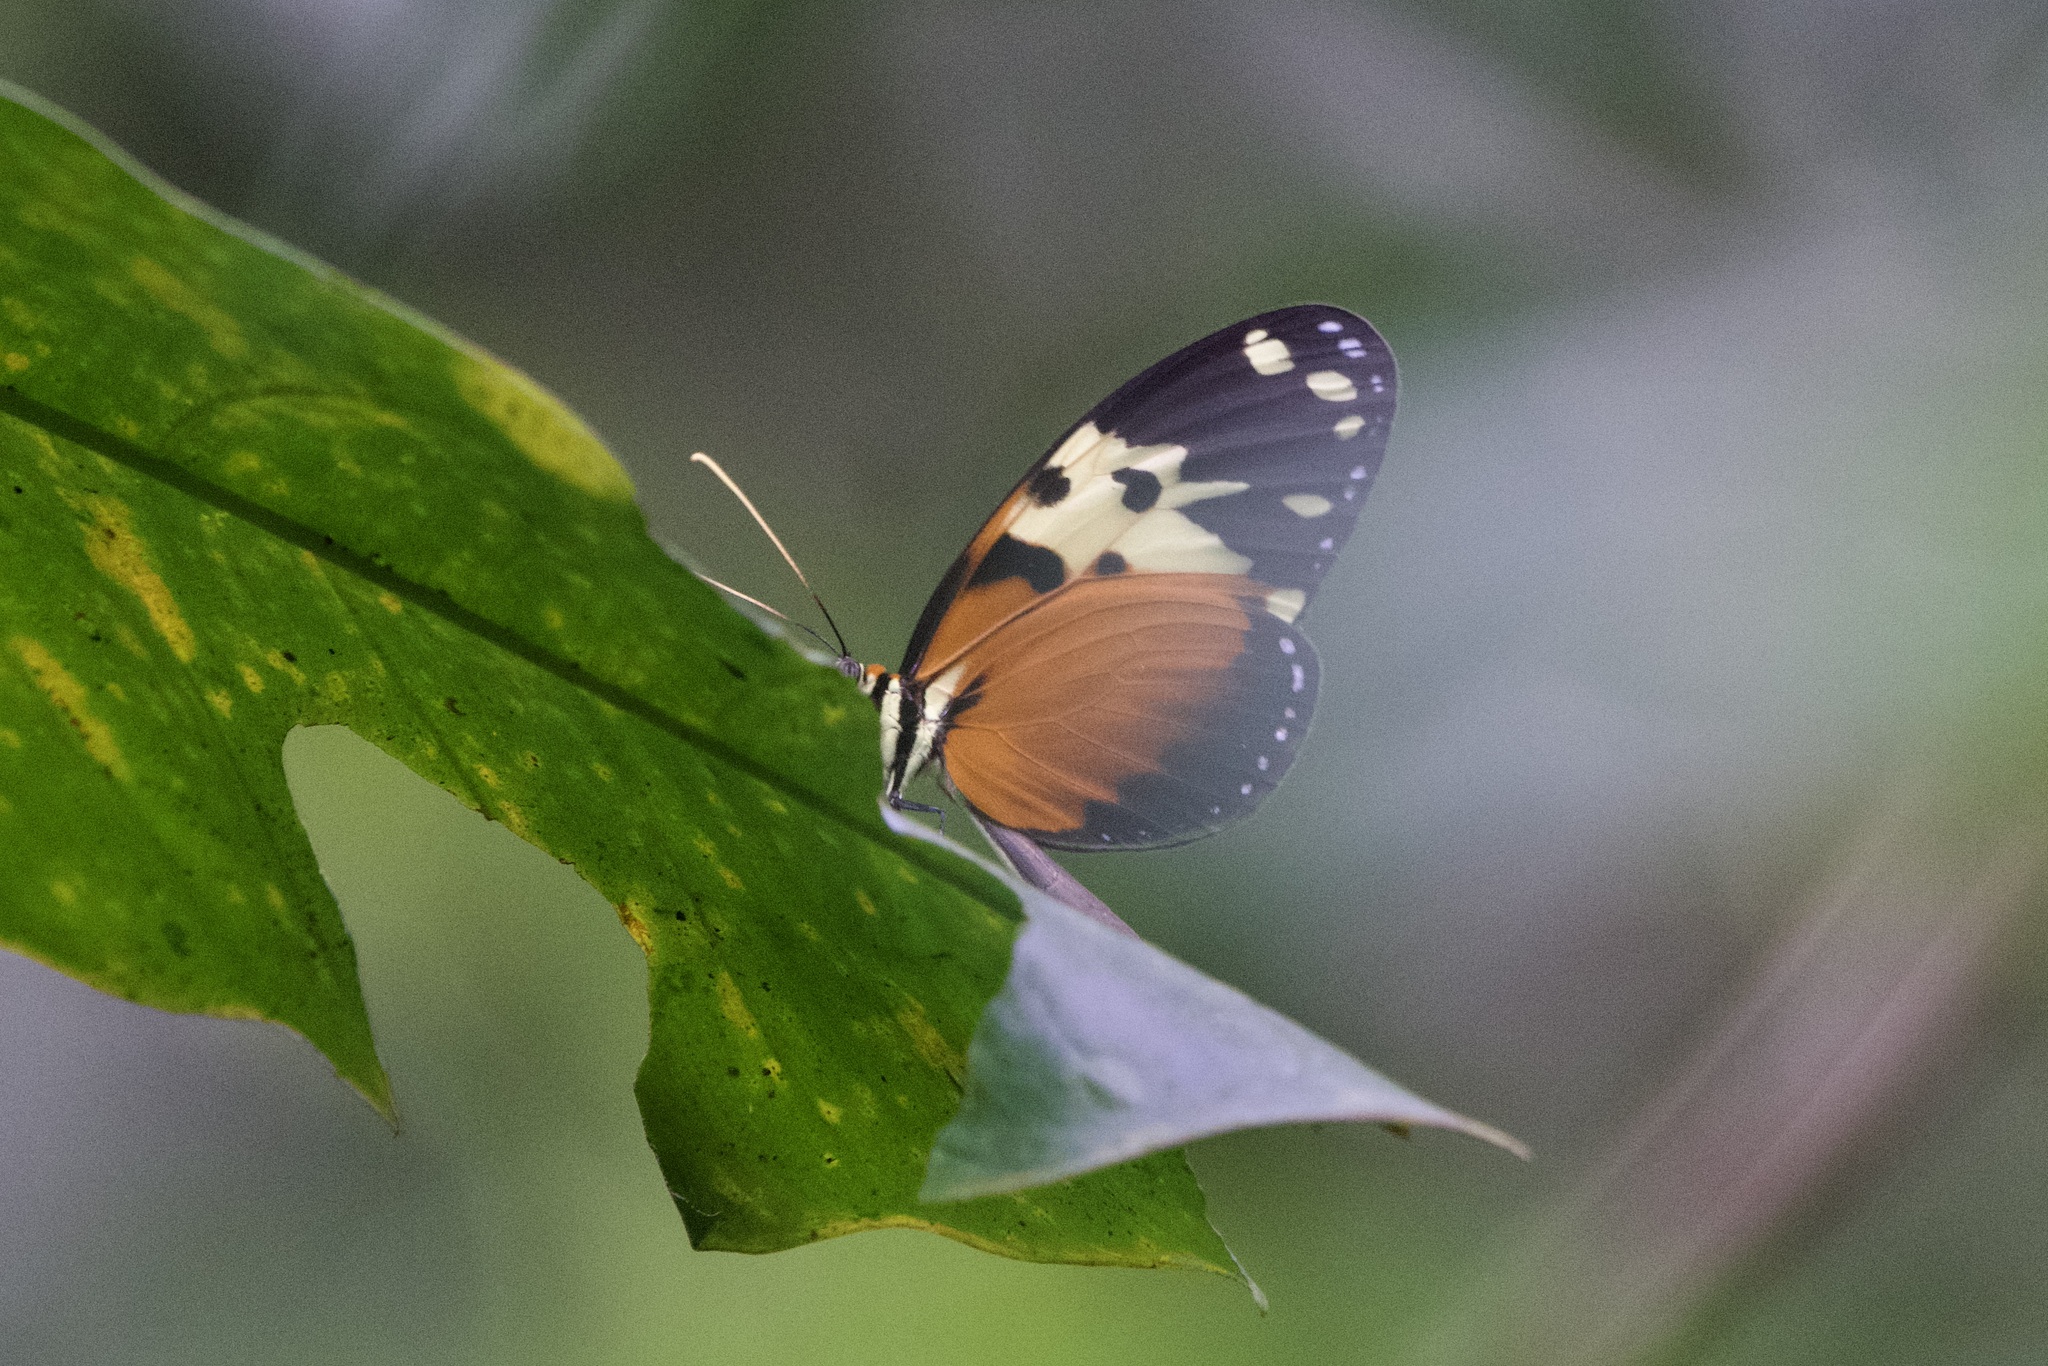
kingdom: Animalia
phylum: Arthropoda
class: Insecta
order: Lepidoptera
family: Nymphalidae
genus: Melinaea
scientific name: Melinaea idae
